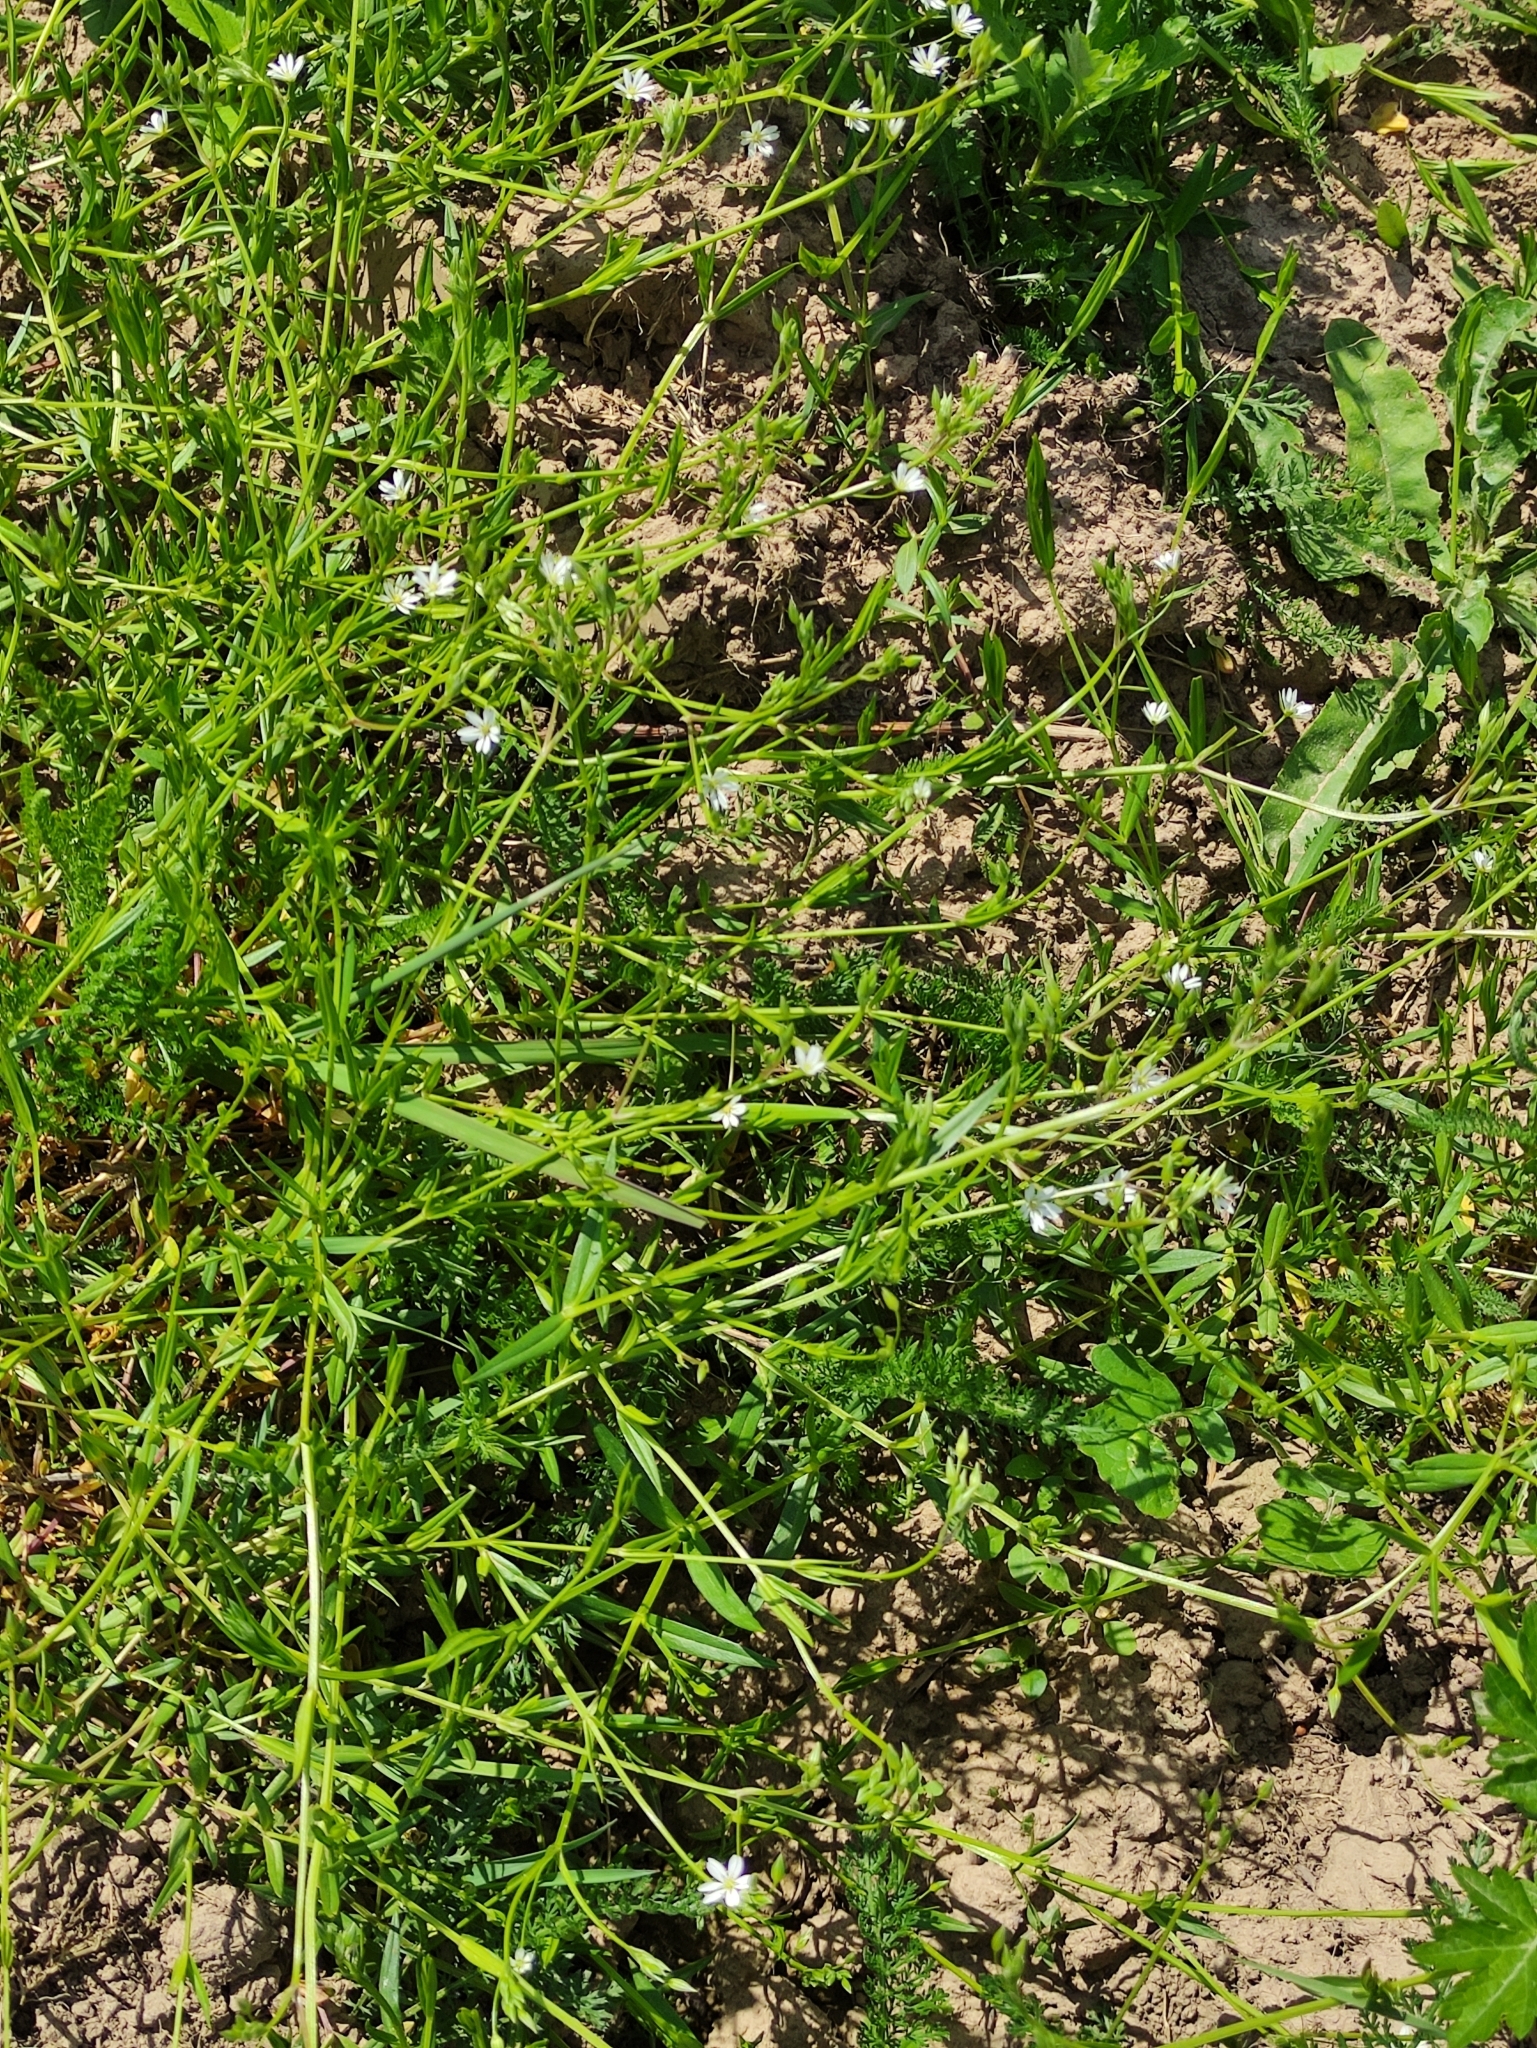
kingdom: Plantae
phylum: Tracheophyta
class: Magnoliopsida
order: Caryophyllales
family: Caryophyllaceae
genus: Stellaria
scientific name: Stellaria graminea
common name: Grass-like starwort
